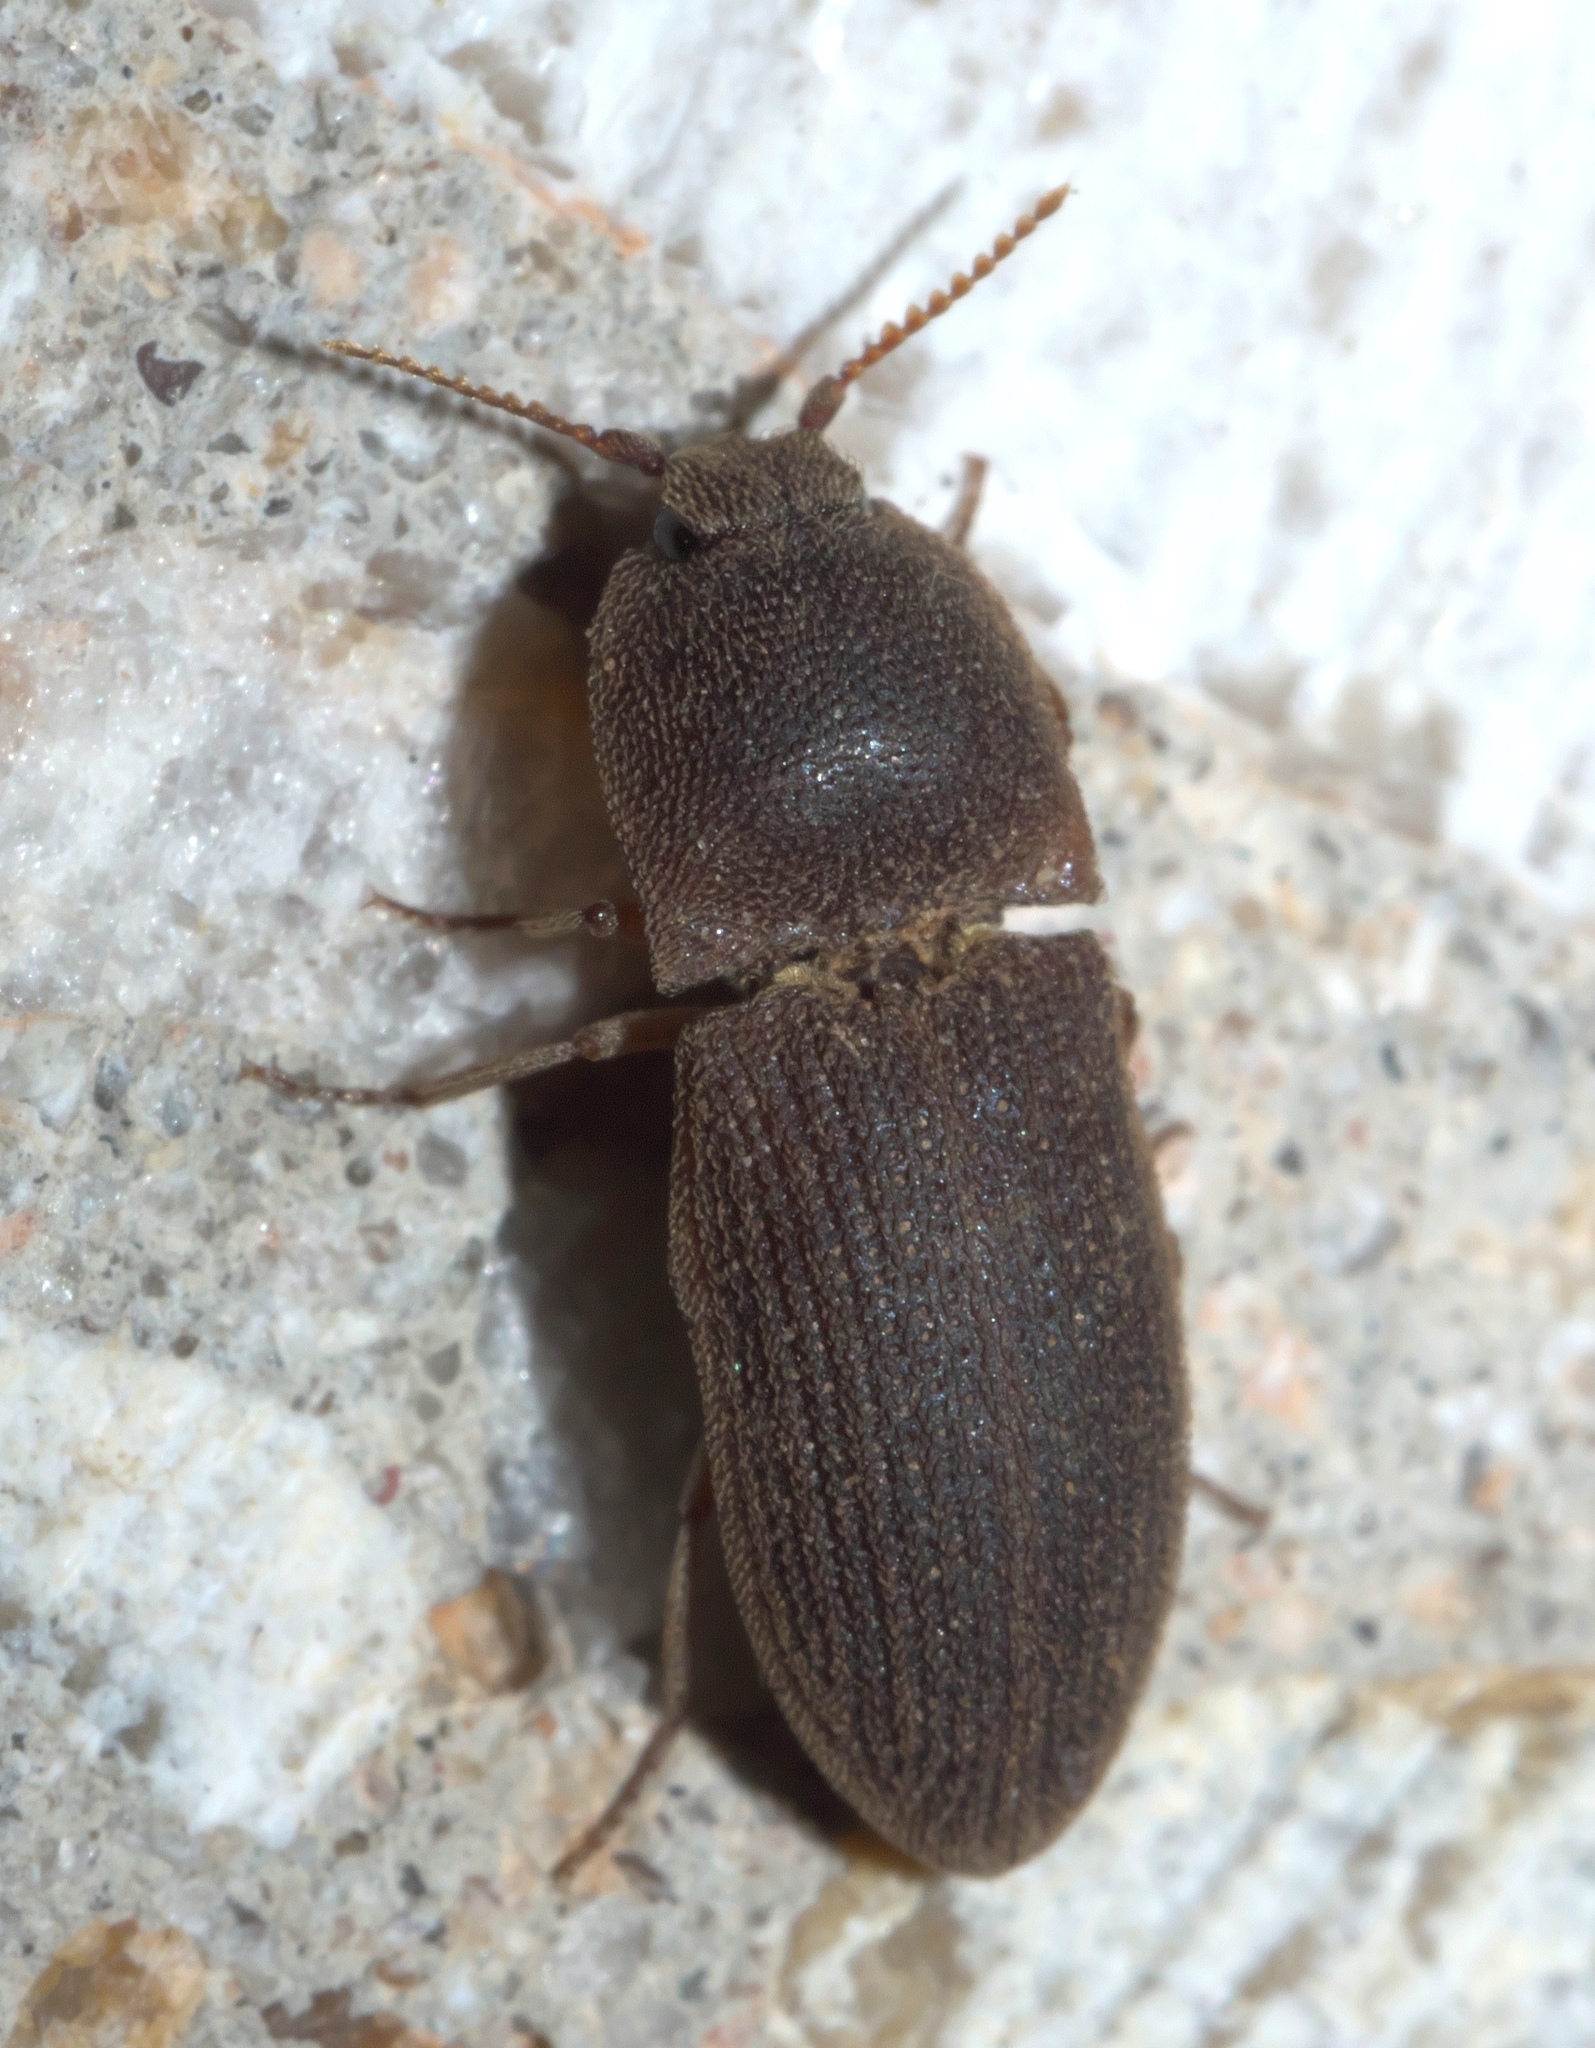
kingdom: Animalia
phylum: Arthropoda
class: Insecta
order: Coleoptera
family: Elateridae
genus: Agrypnus
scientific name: Agrypnus rectangularis
